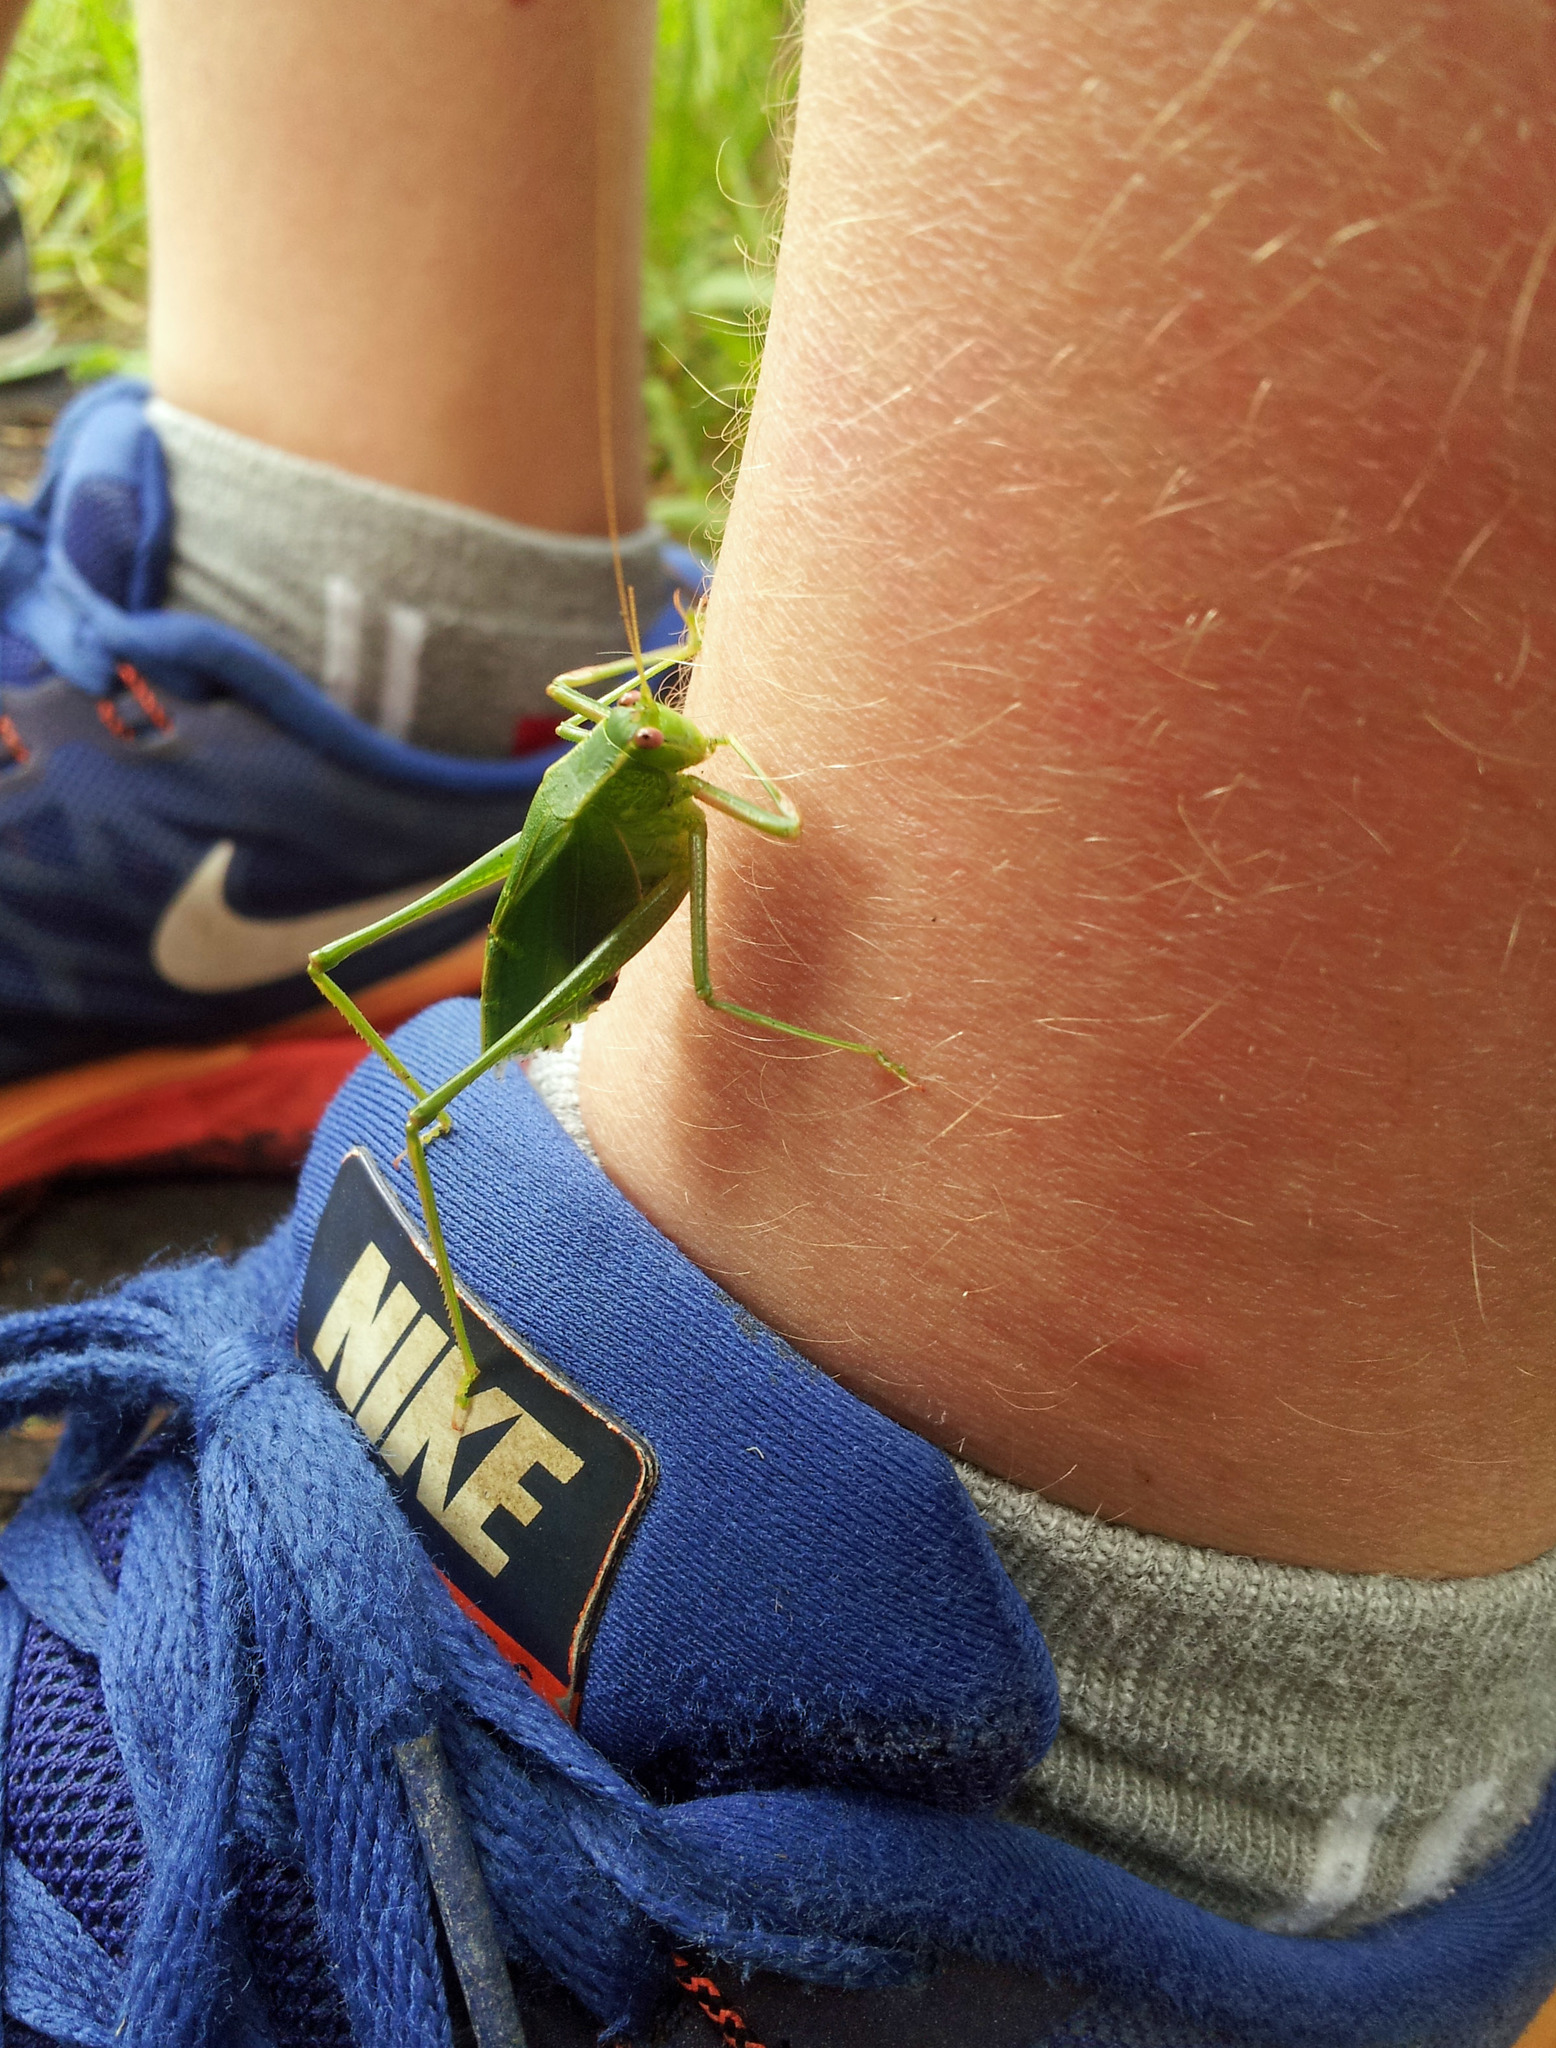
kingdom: Animalia
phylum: Arthropoda
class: Insecta
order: Orthoptera
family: Tettigoniidae
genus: Caedicia
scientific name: Caedicia simplex
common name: Common garden katydid
